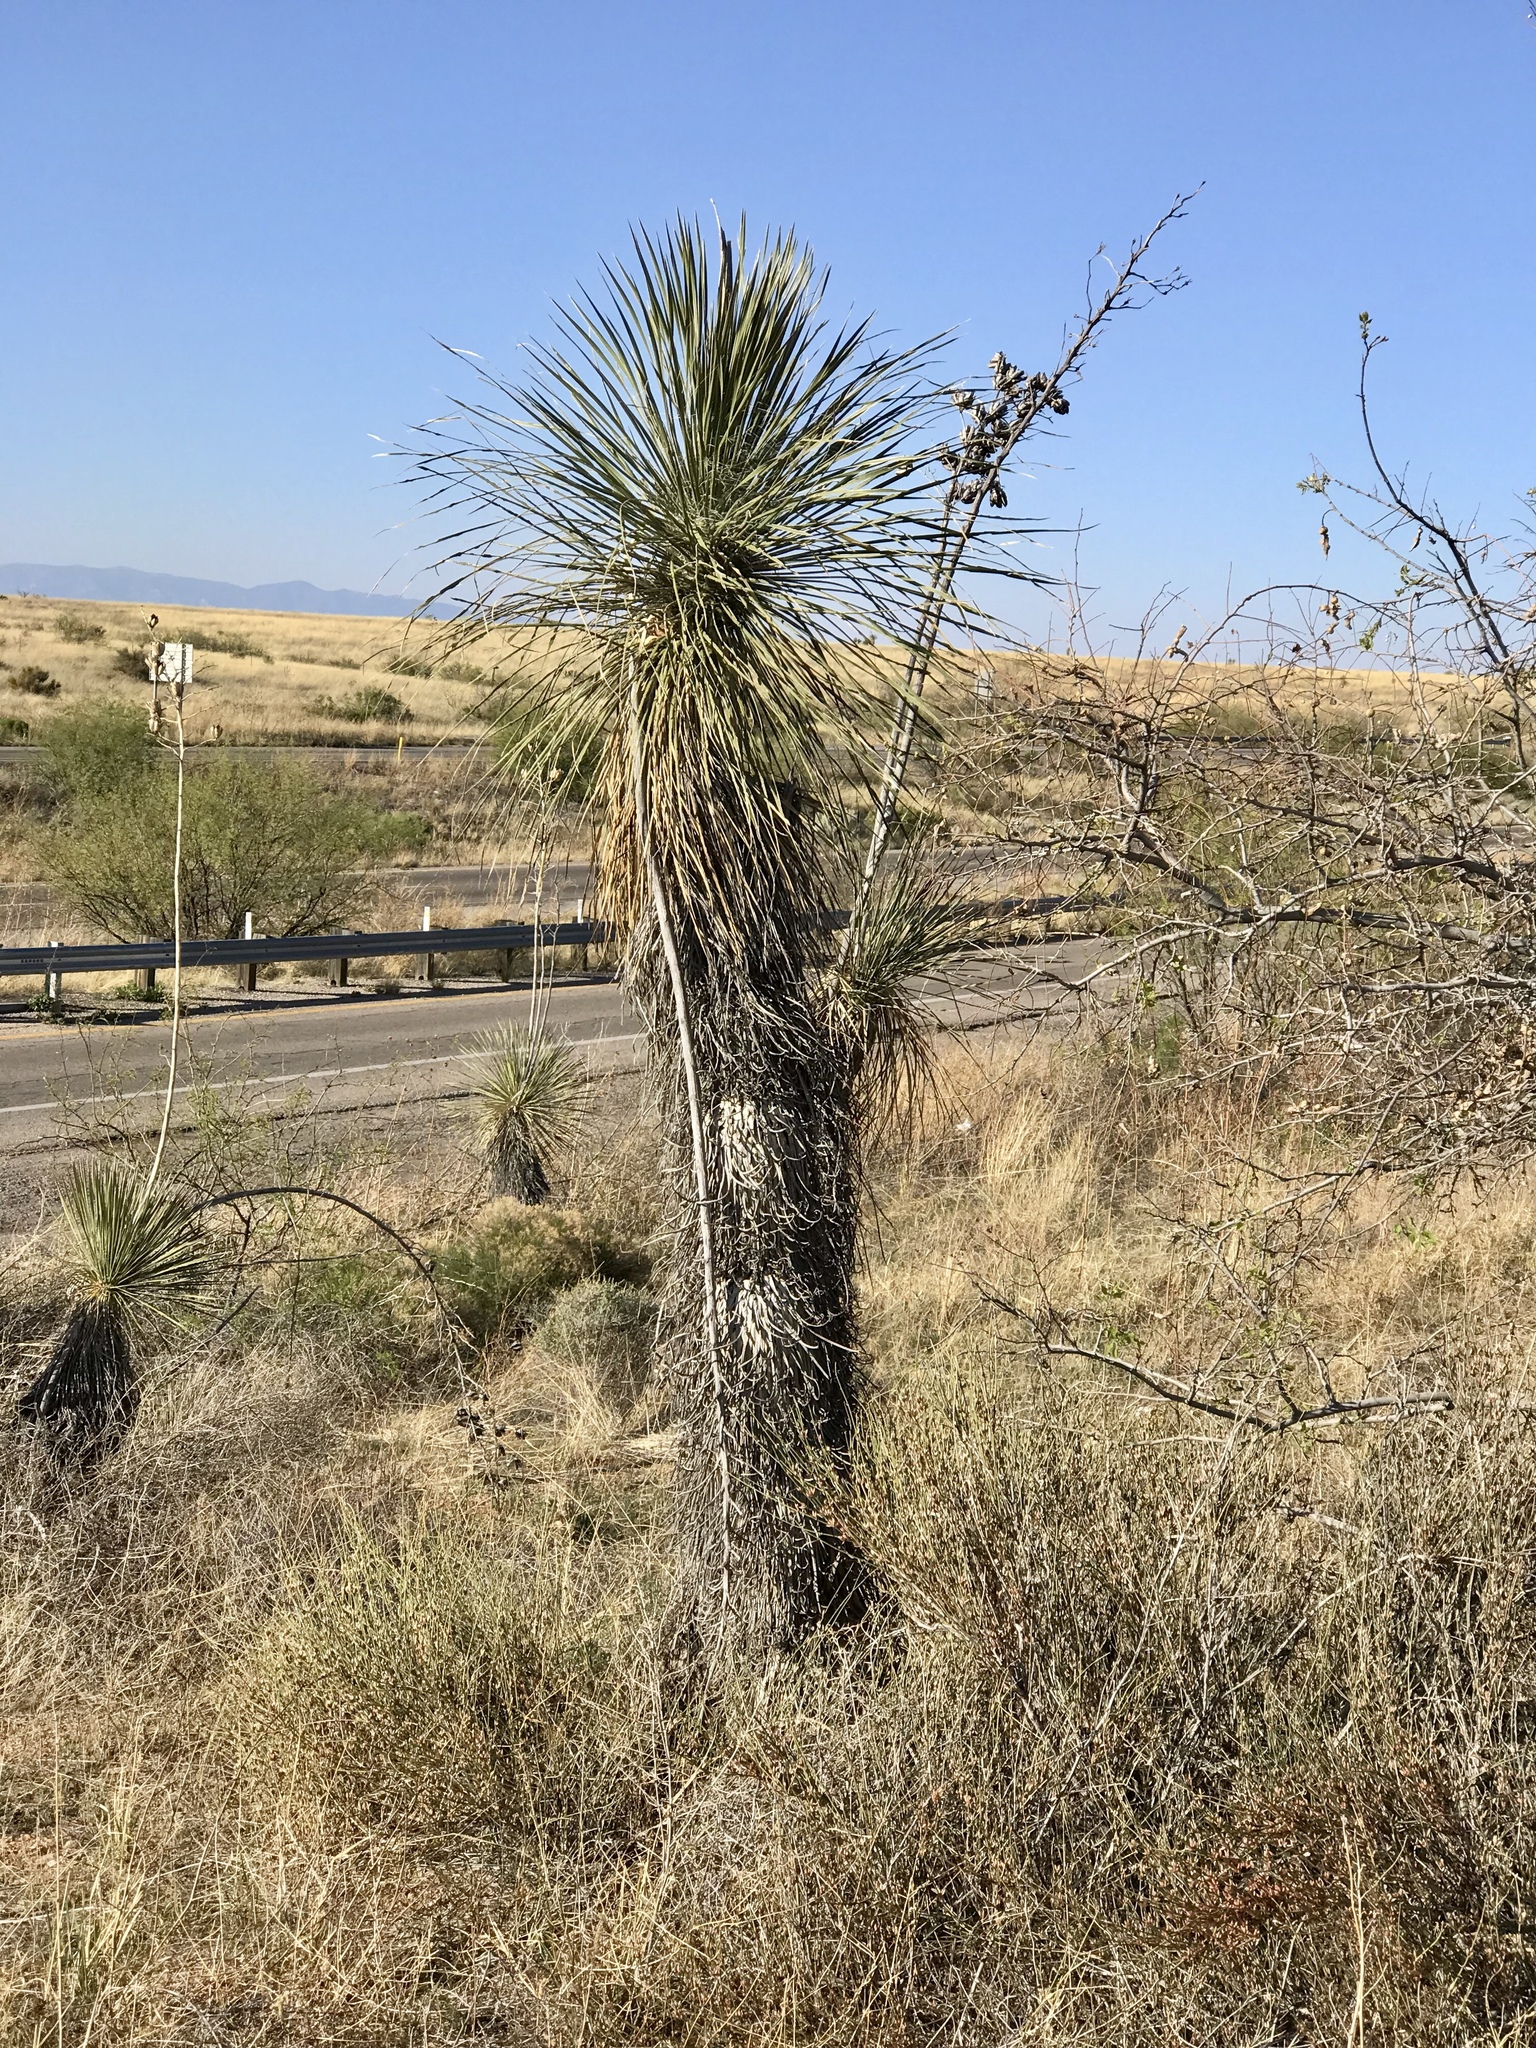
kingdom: Plantae
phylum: Tracheophyta
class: Liliopsida
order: Asparagales
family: Asparagaceae
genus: Yucca
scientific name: Yucca elata
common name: Palmella
